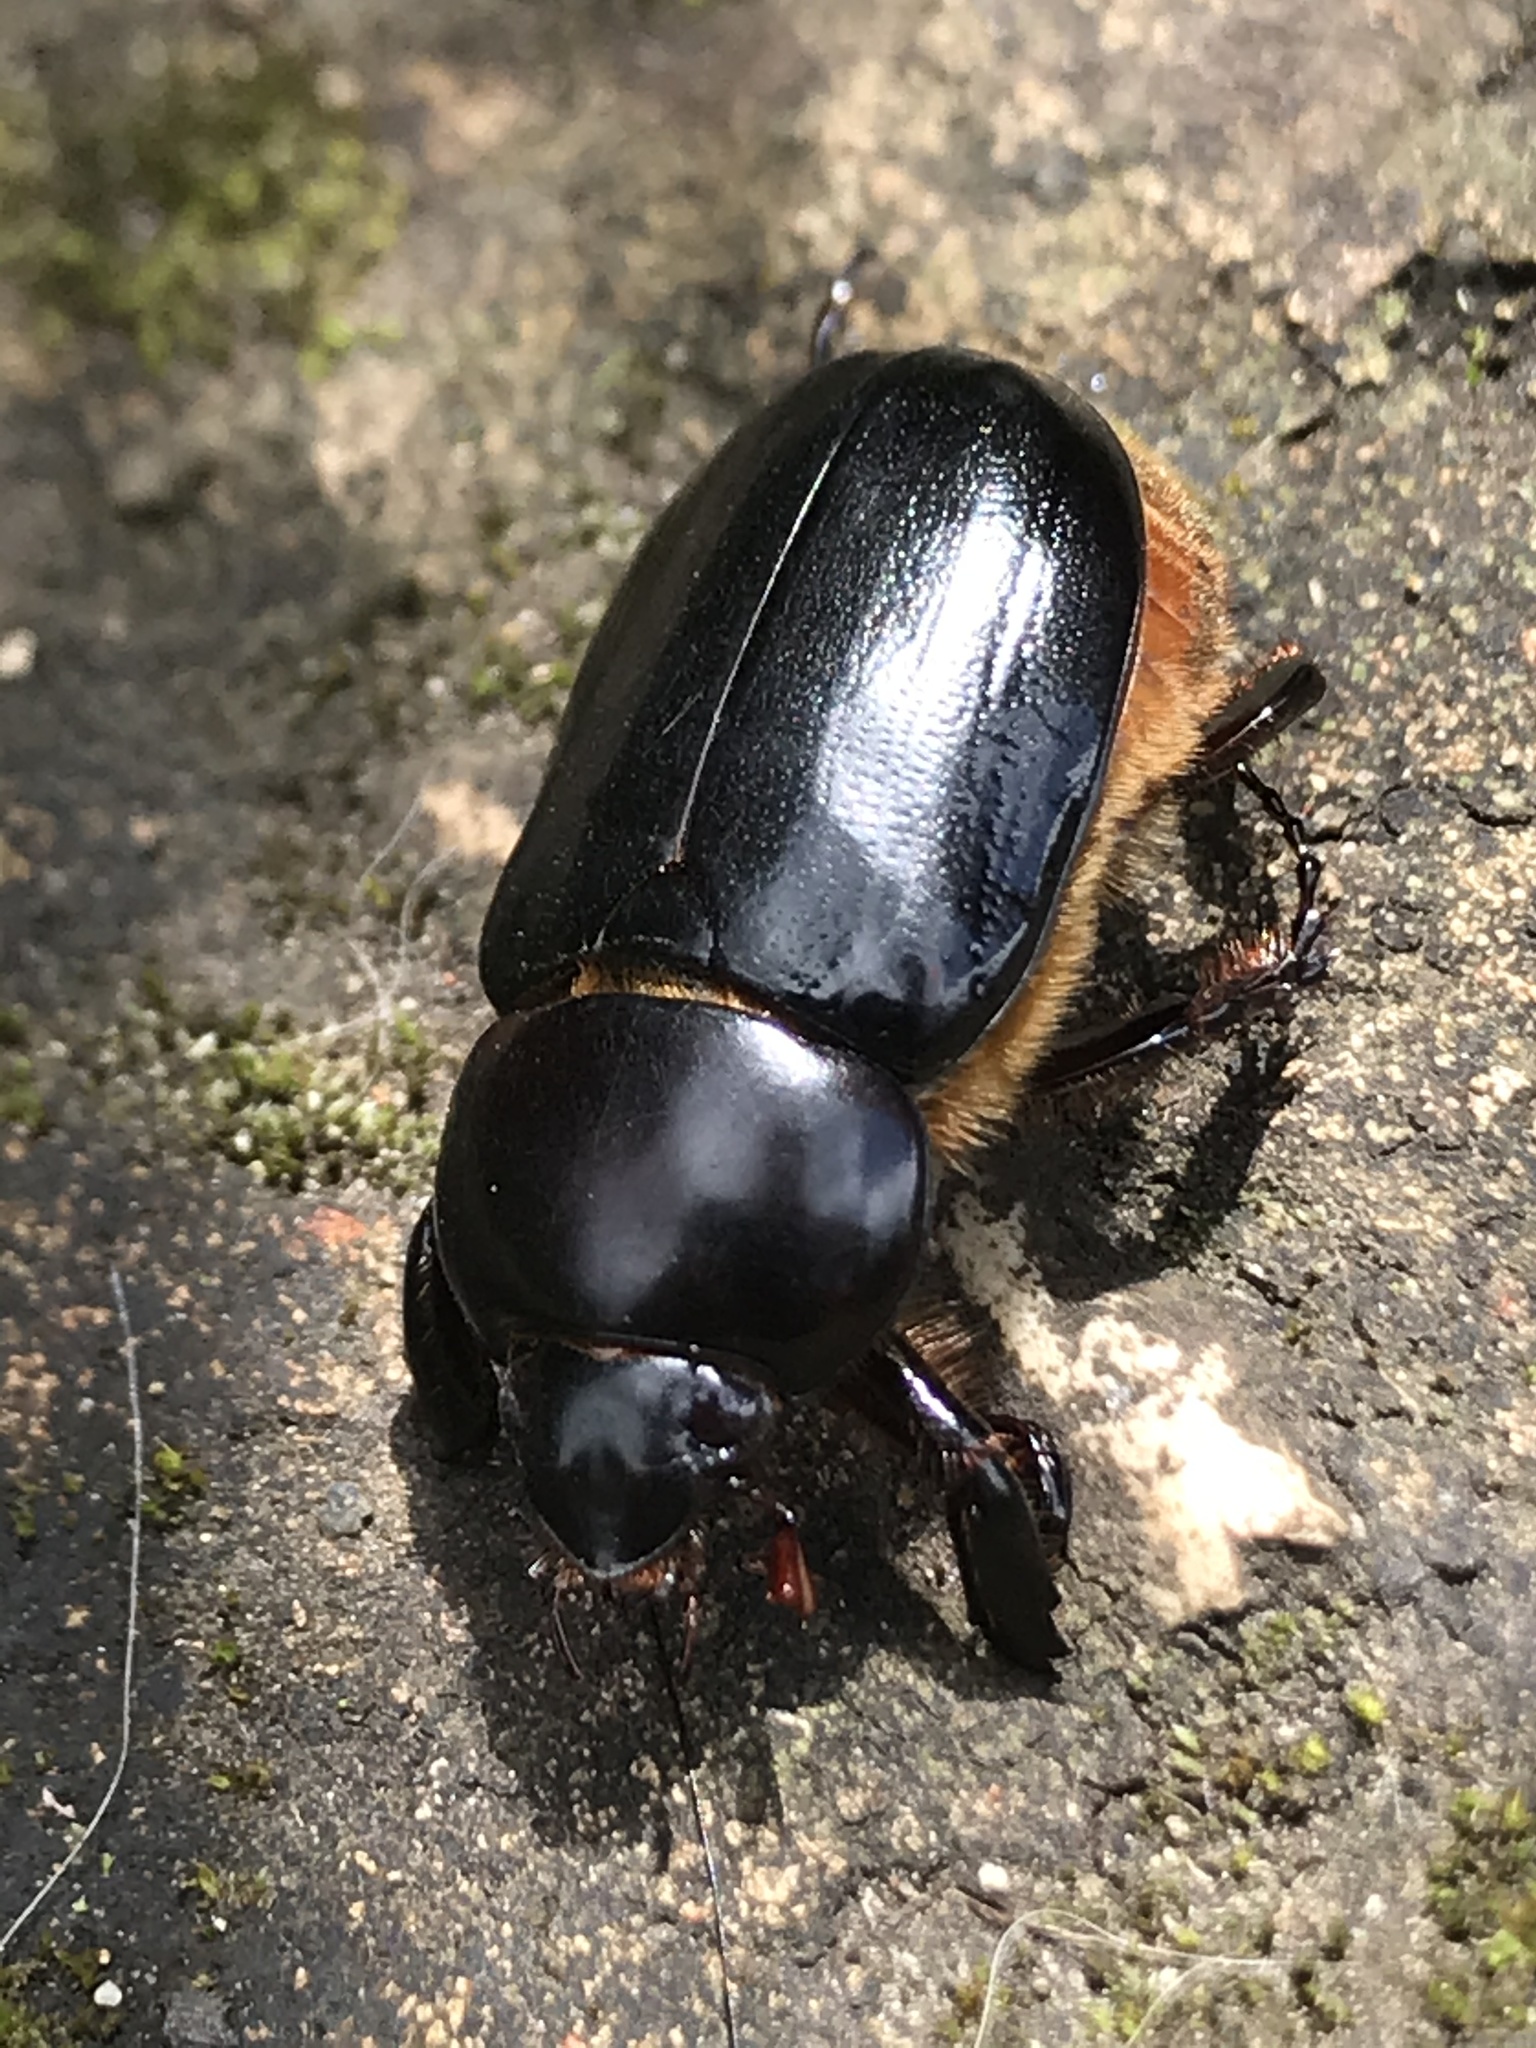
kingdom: Animalia
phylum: Arthropoda
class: Insecta
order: Coleoptera
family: Scarabaeidae
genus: Ancognatha
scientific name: Ancognatha scarabaeoides
